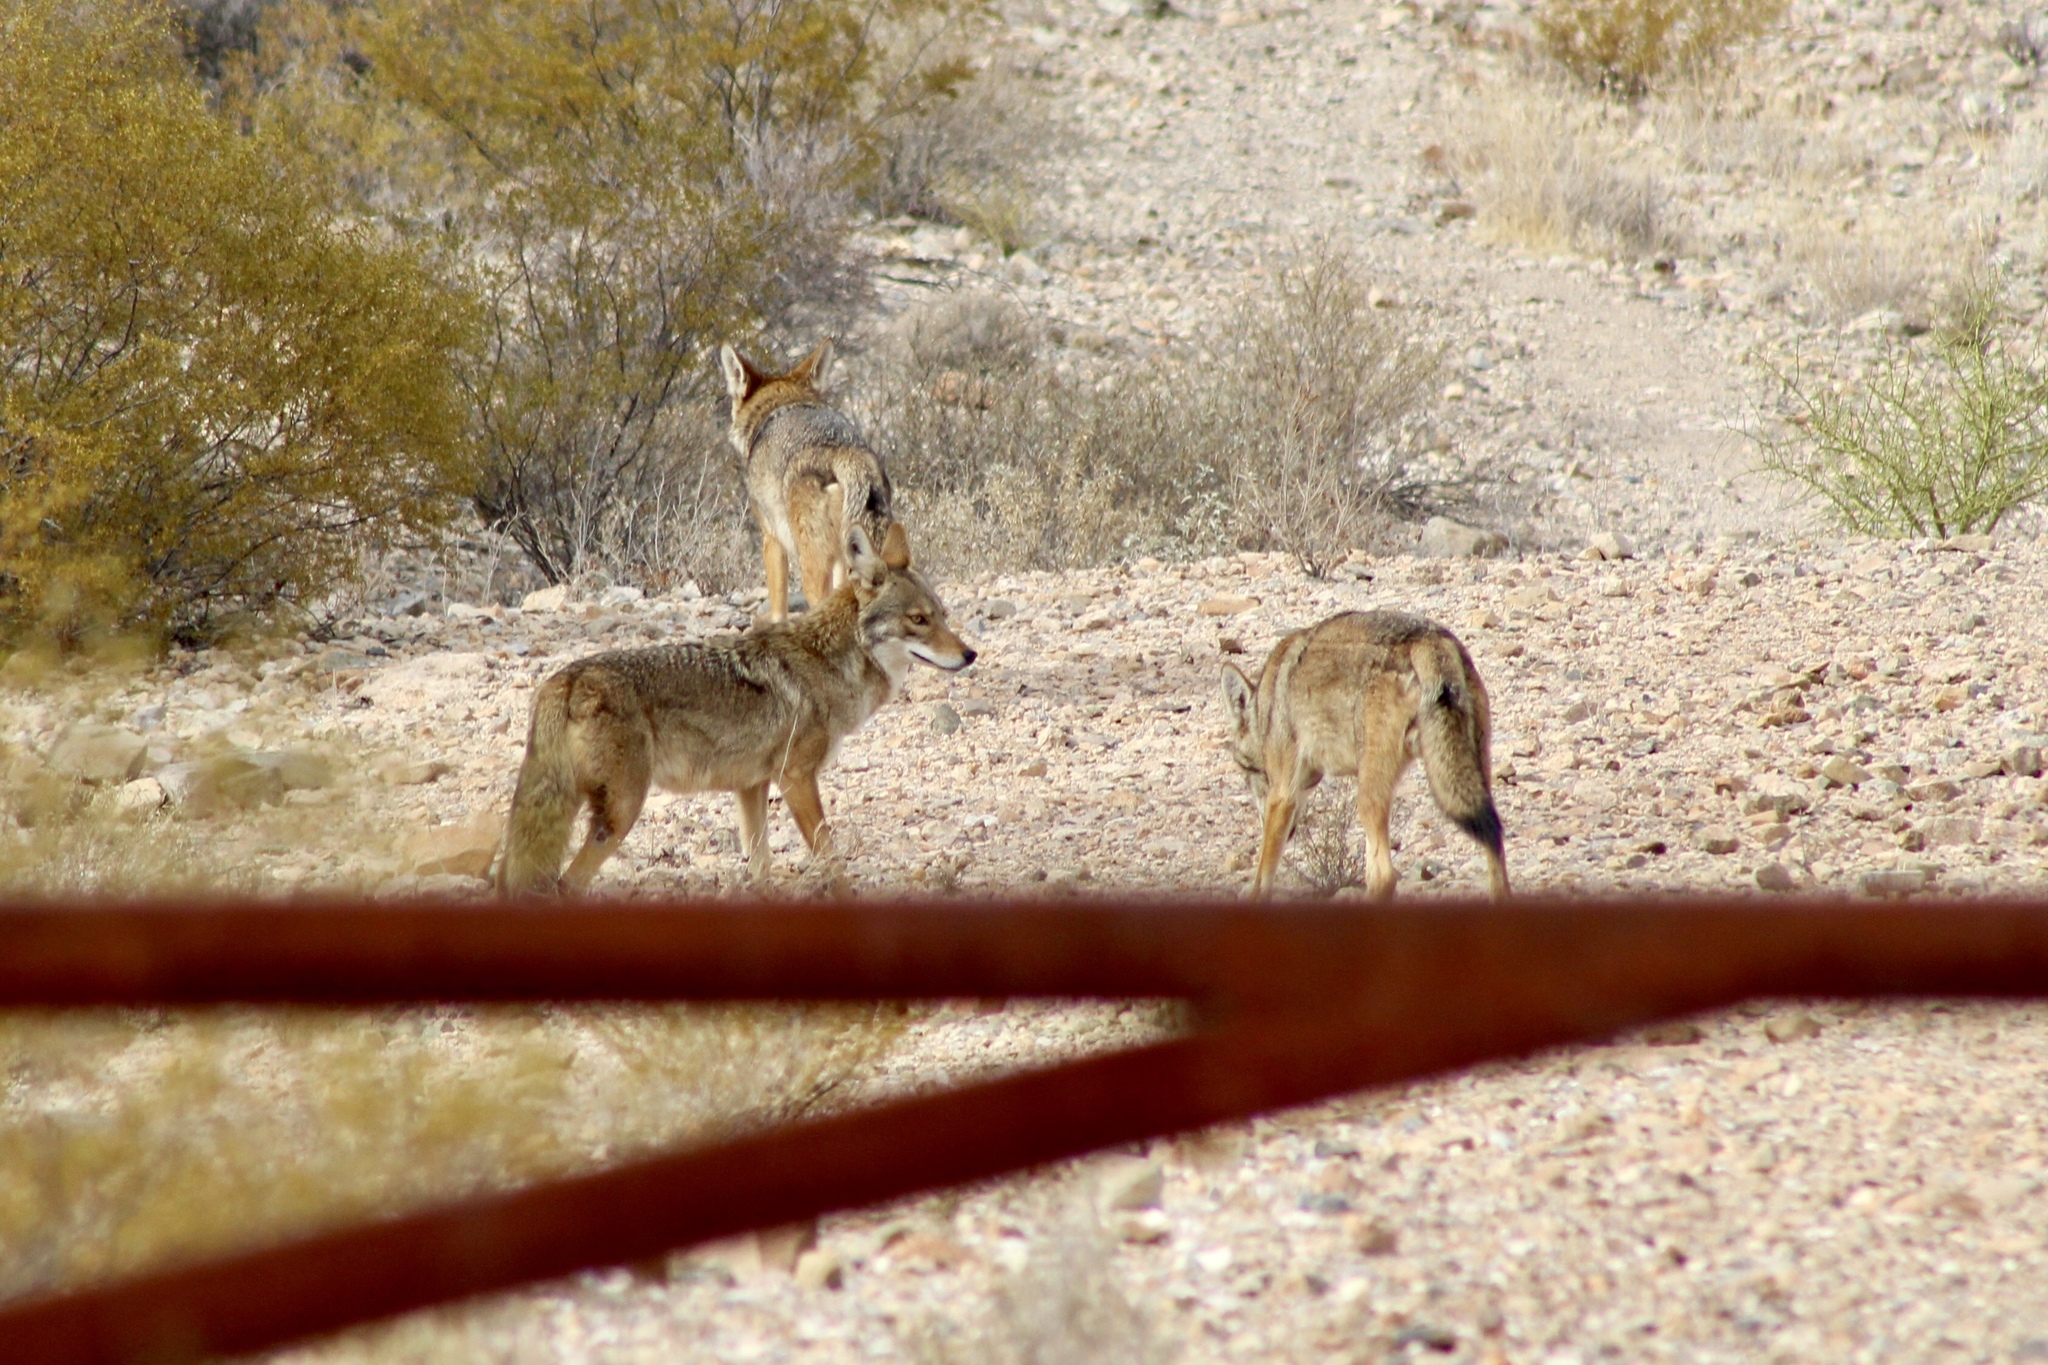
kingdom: Animalia
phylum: Chordata
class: Mammalia
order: Carnivora
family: Canidae
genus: Canis
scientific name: Canis latrans
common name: Coyote
